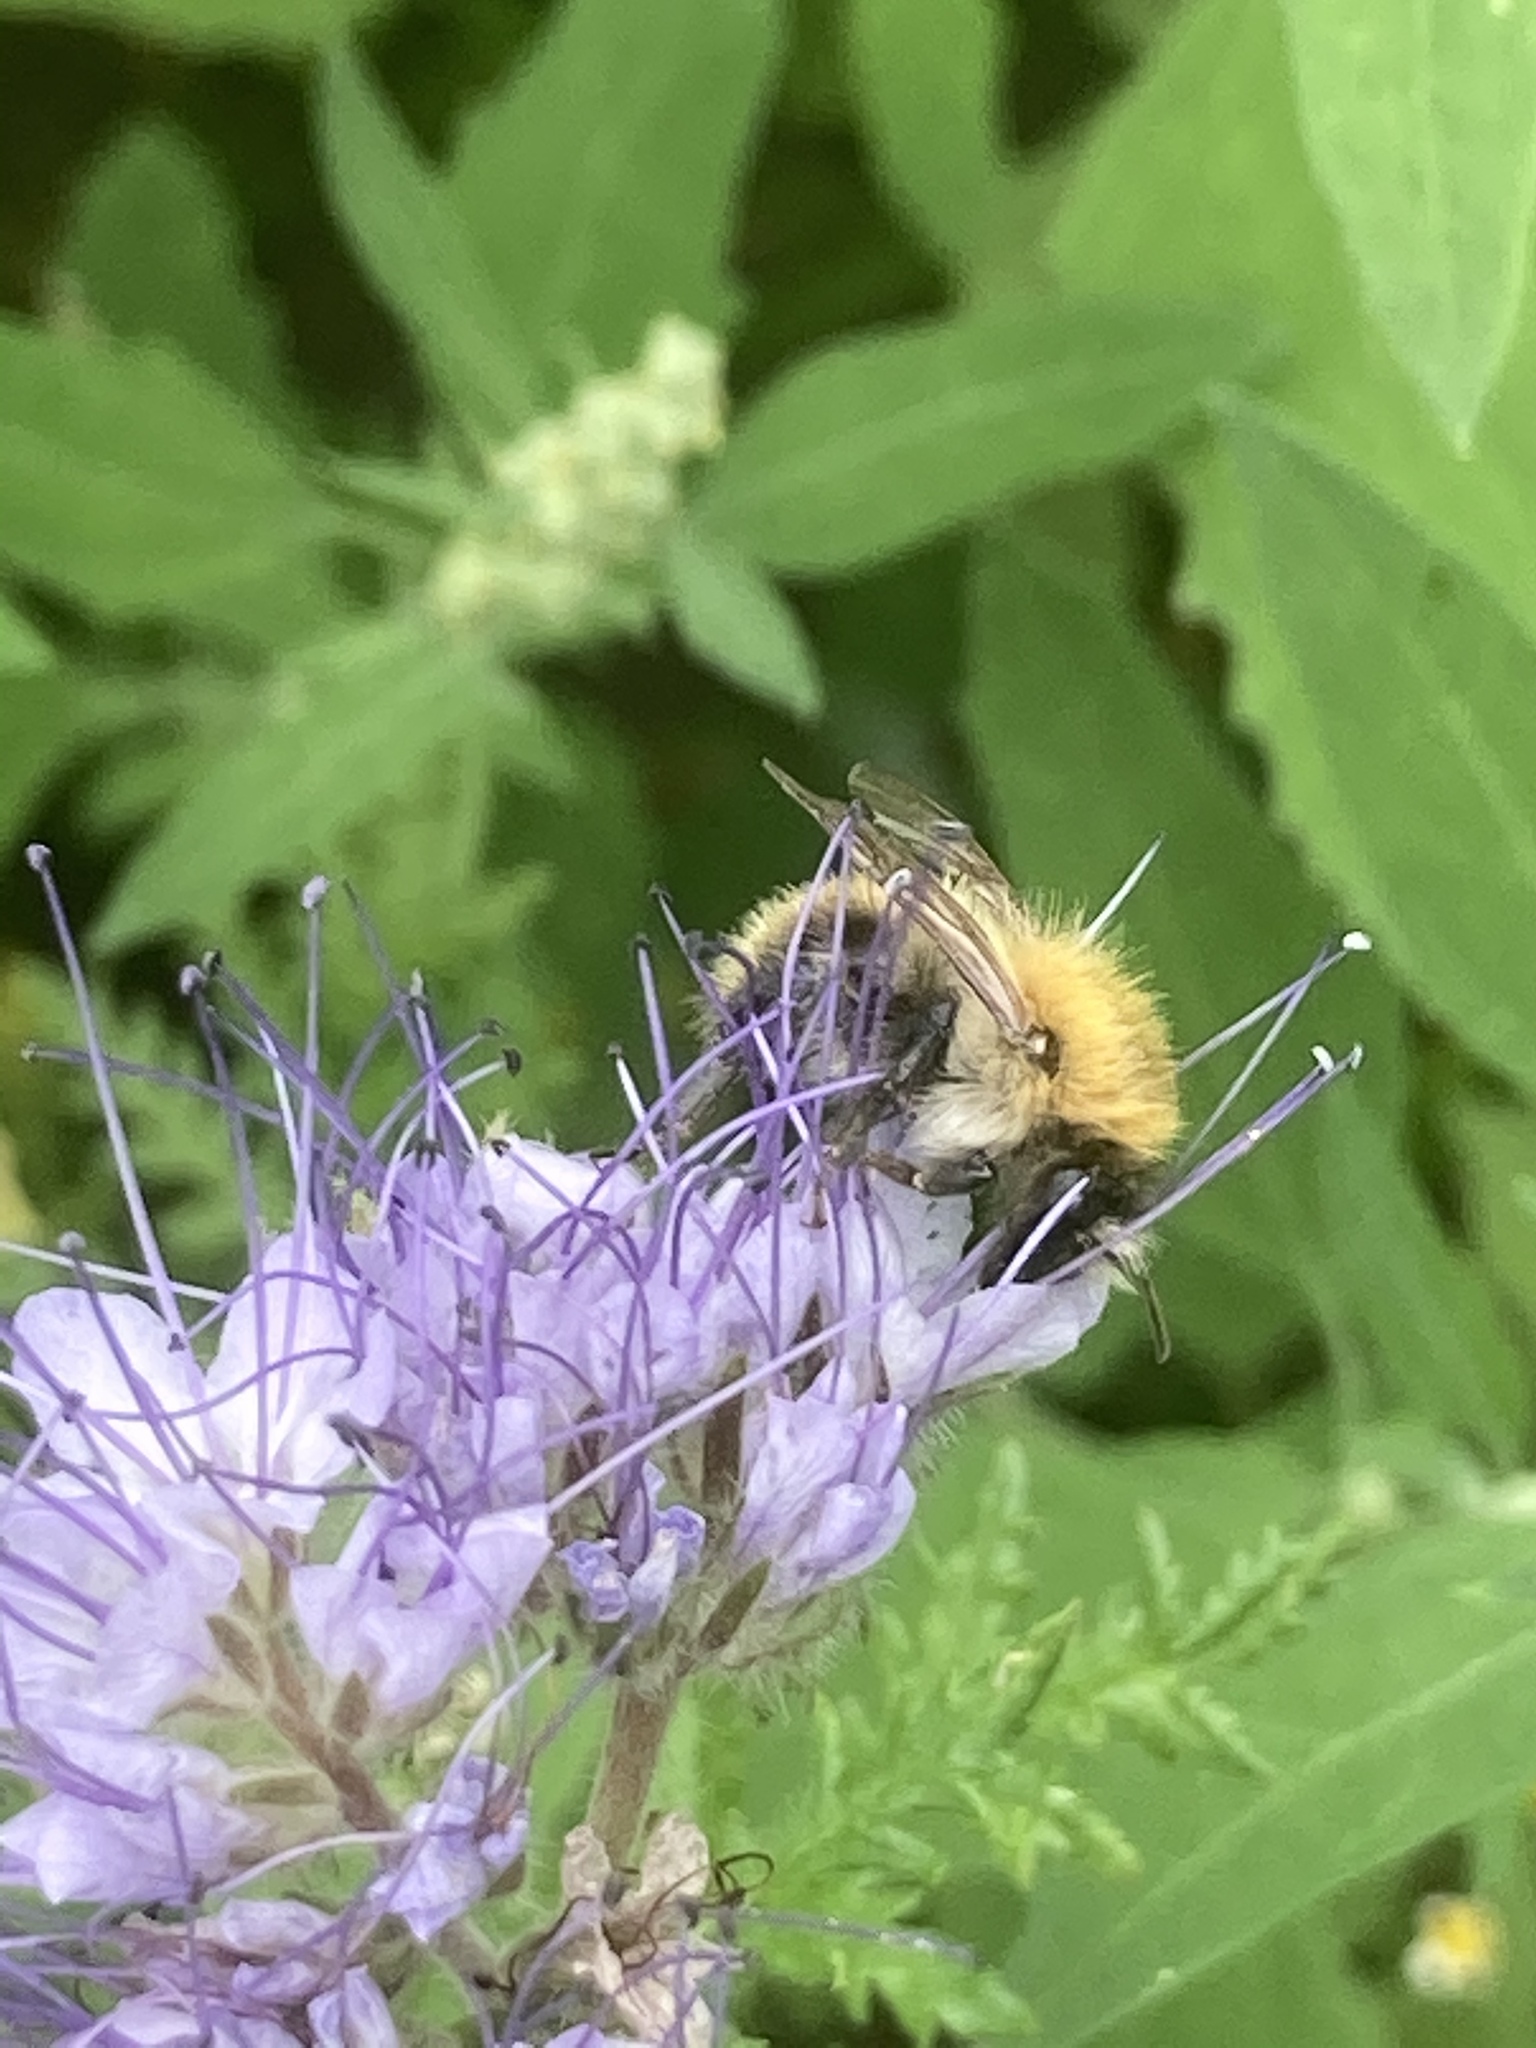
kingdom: Animalia
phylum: Arthropoda
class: Insecta
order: Hymenoptera
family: Apidae
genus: Bombus
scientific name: Bombus pascuorum
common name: Common carder bee
